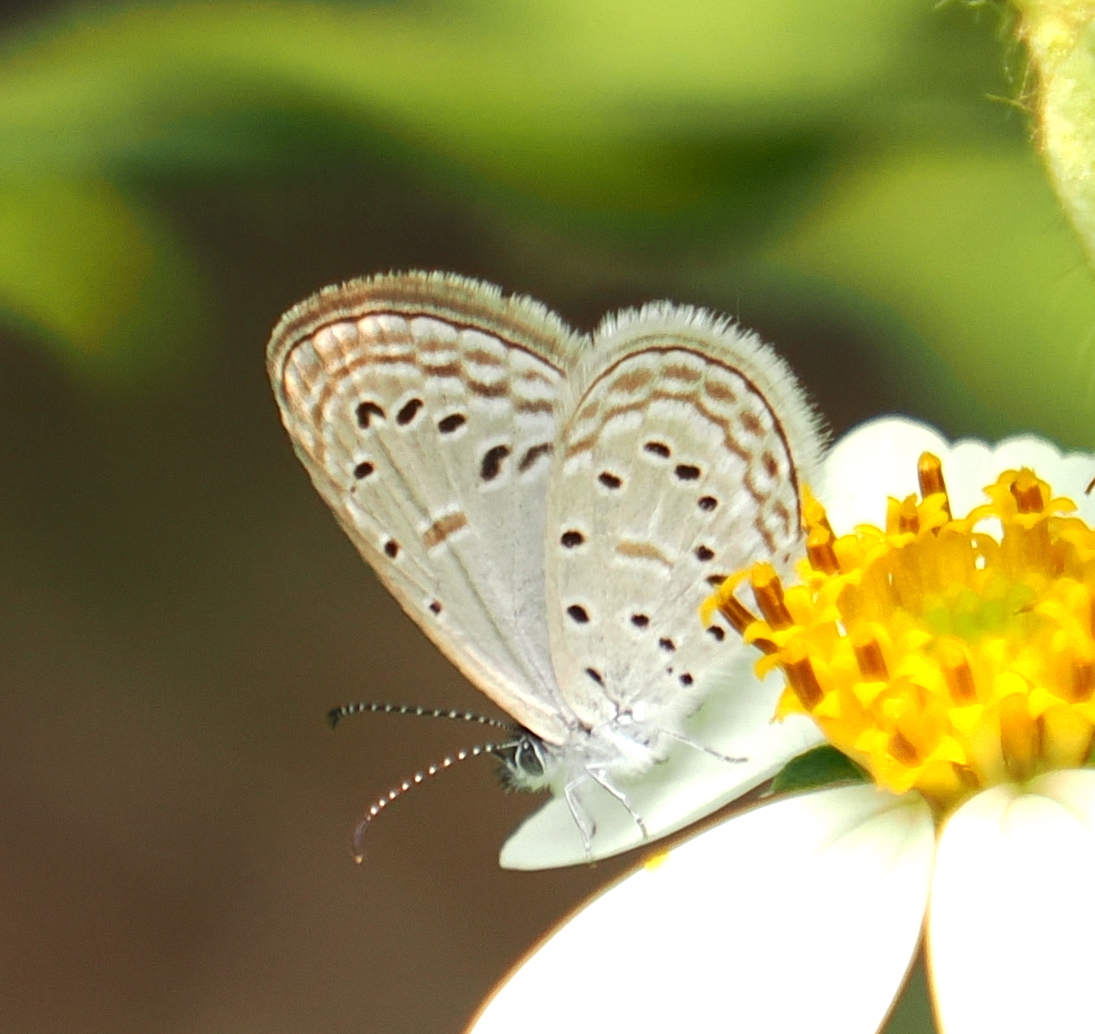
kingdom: Animalia
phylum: Arthropoda
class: Insecta
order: Lepidoptera
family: Lycaenidae
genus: Zizula
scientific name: Zizula hylax
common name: Gaika blue
